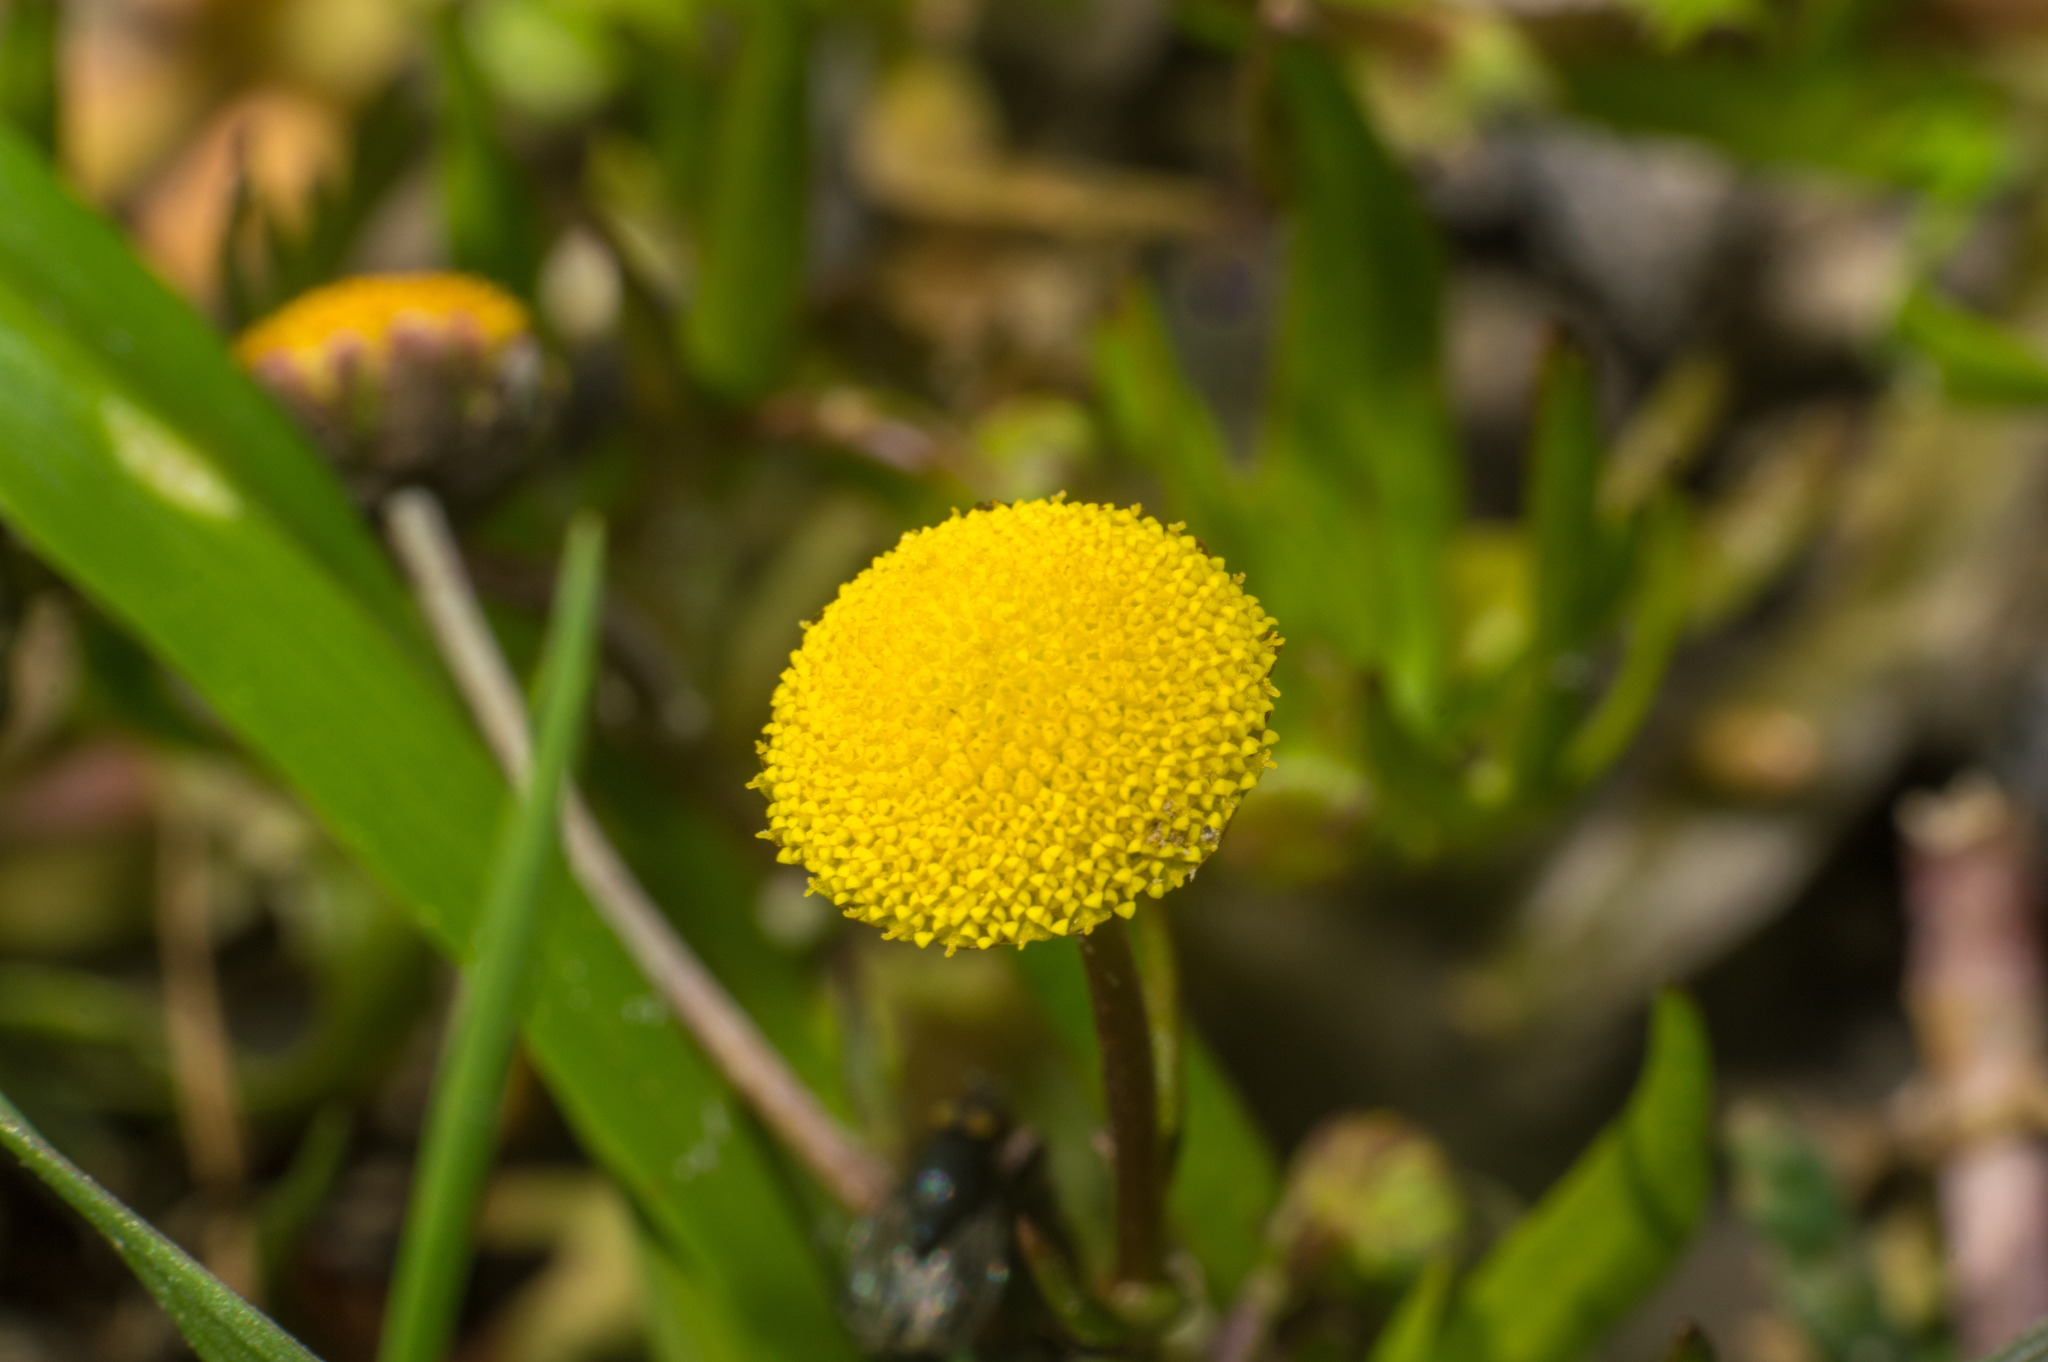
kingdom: Plantae
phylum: Tracheophyta
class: Magnoliopsida
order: Asterales
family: Asteraceae
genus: Cotula
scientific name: Cotula coronopifolia
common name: Buttonweed
